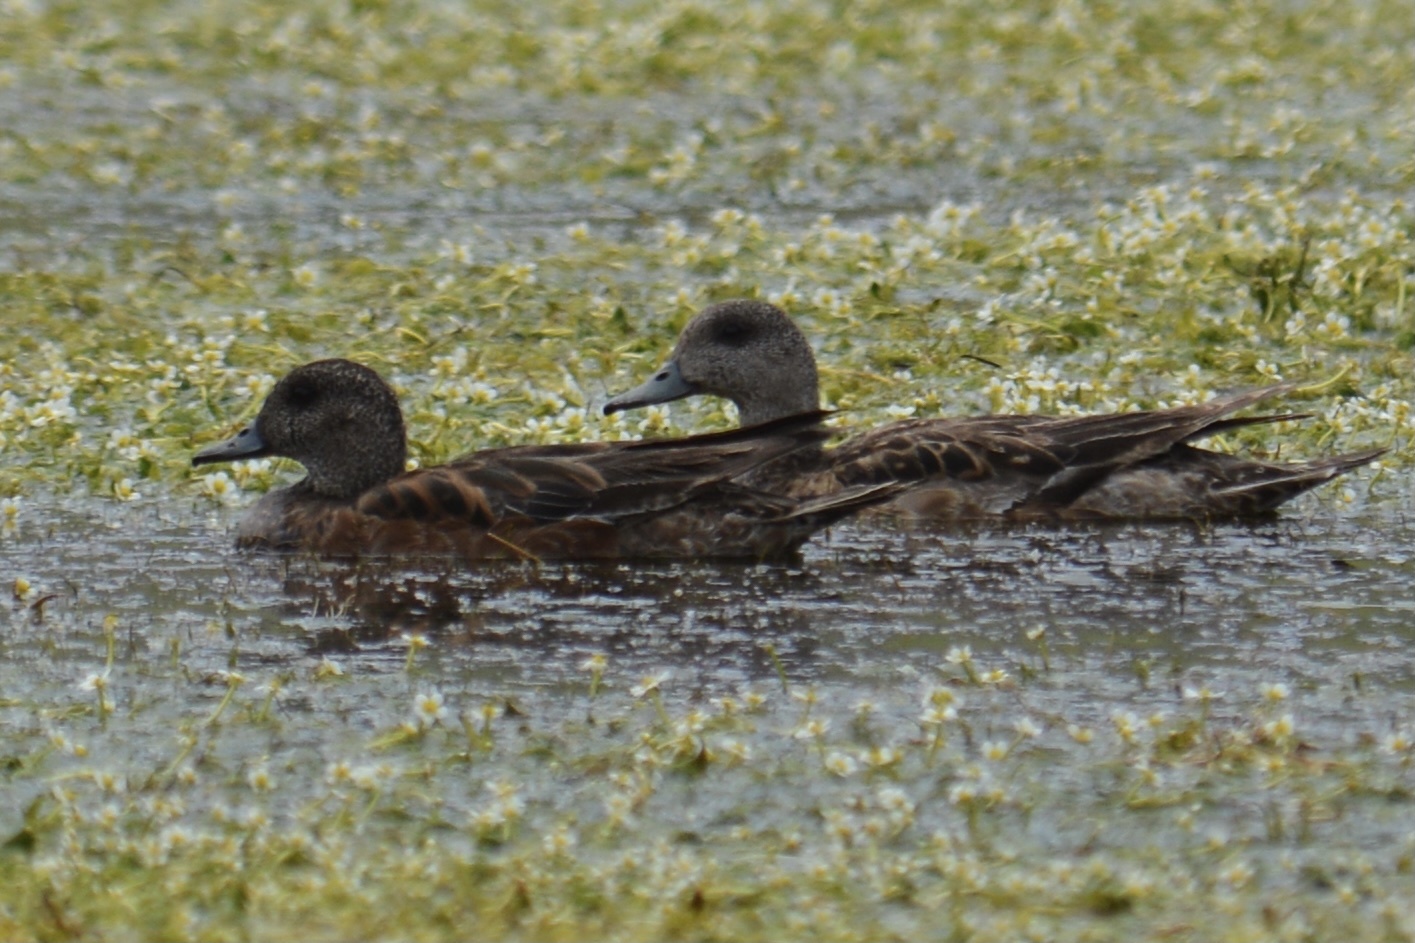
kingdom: Animalia
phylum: Chordata
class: Aves
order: Anseriformes
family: Anatidae
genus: Mareca
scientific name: Mareca americana
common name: American wigeon
